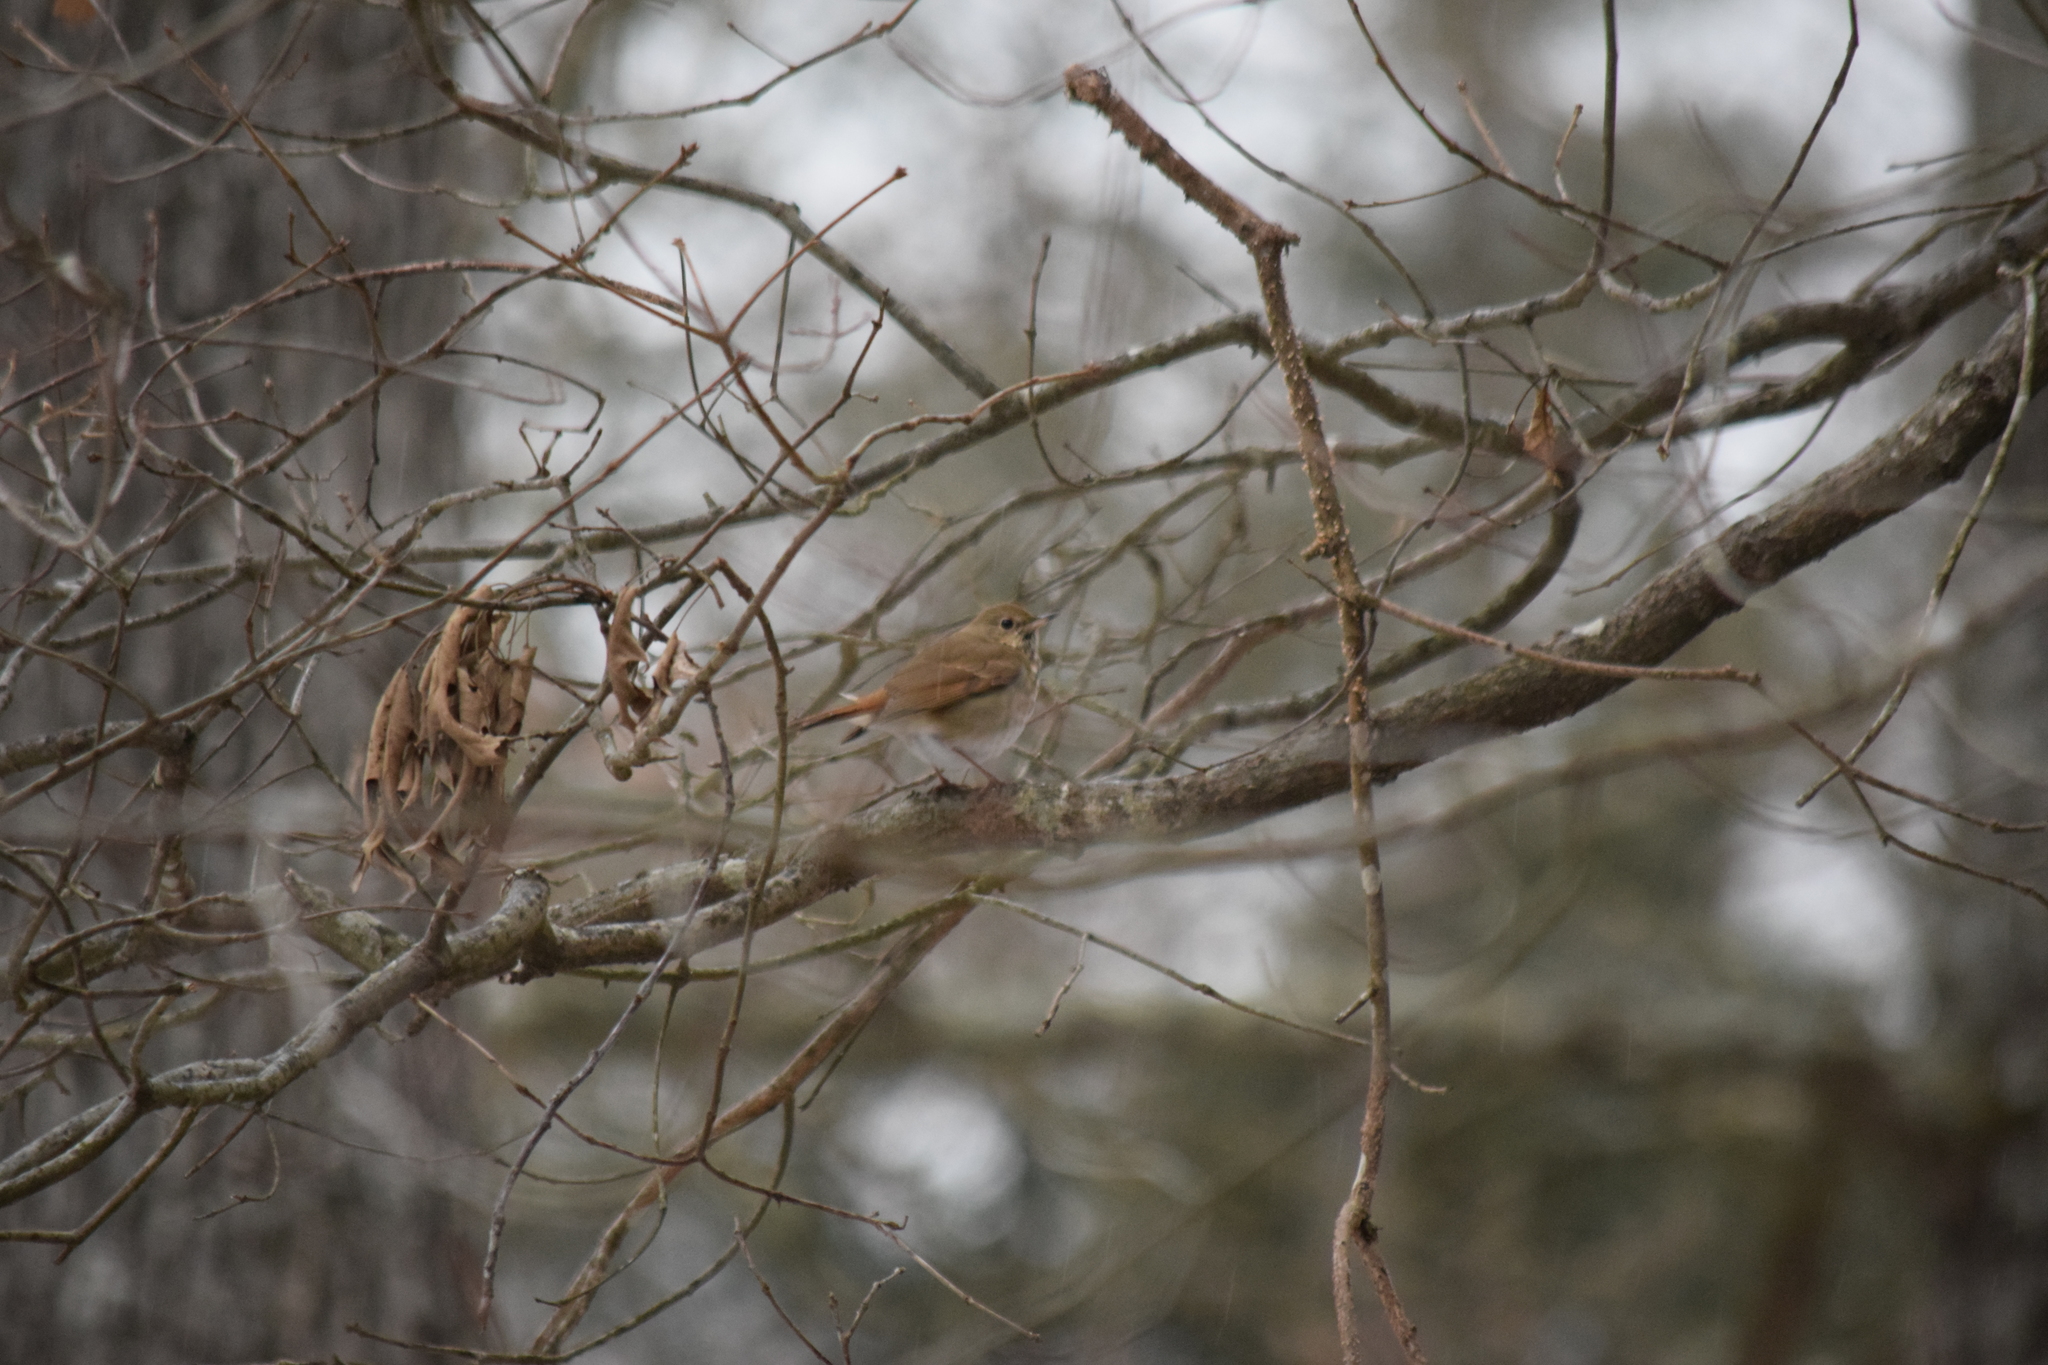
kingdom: Animalia
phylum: Chordata
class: Aves
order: Passeriformes
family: Turdidae
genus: Catharus
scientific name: Catharus guttatus
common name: Hermit thrush
